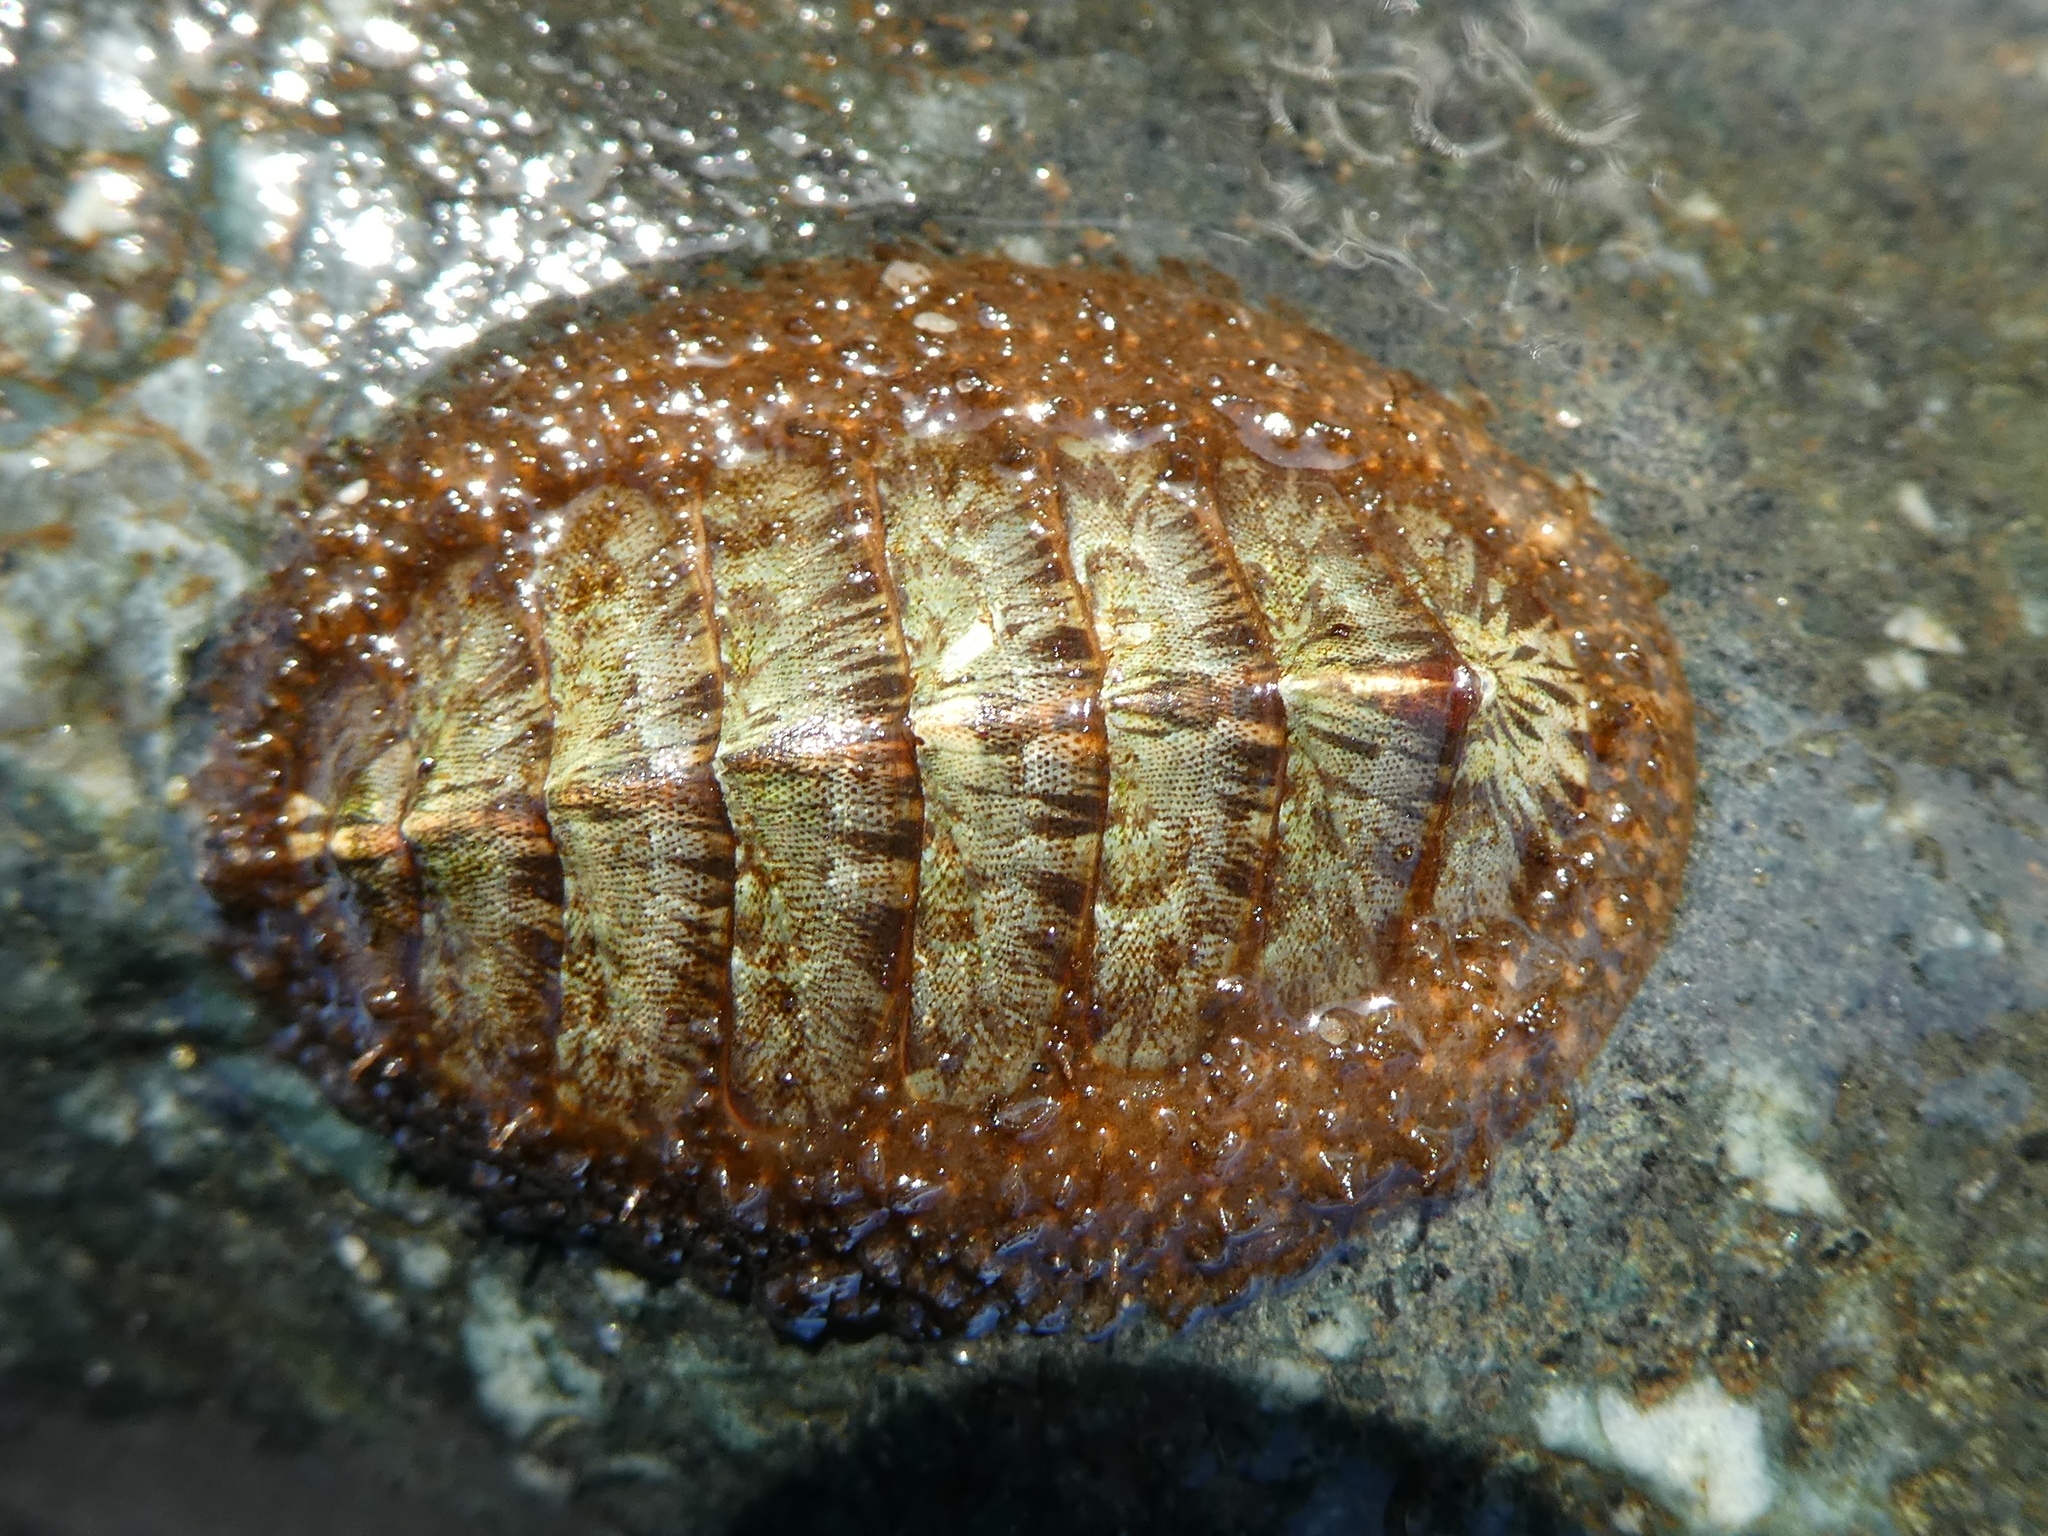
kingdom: Animalia
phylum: Mollusca
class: Polyplacophora
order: Chitonida
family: Mopaliidae
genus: Mopalia
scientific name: Mopalia lignosa
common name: Woody chiton
